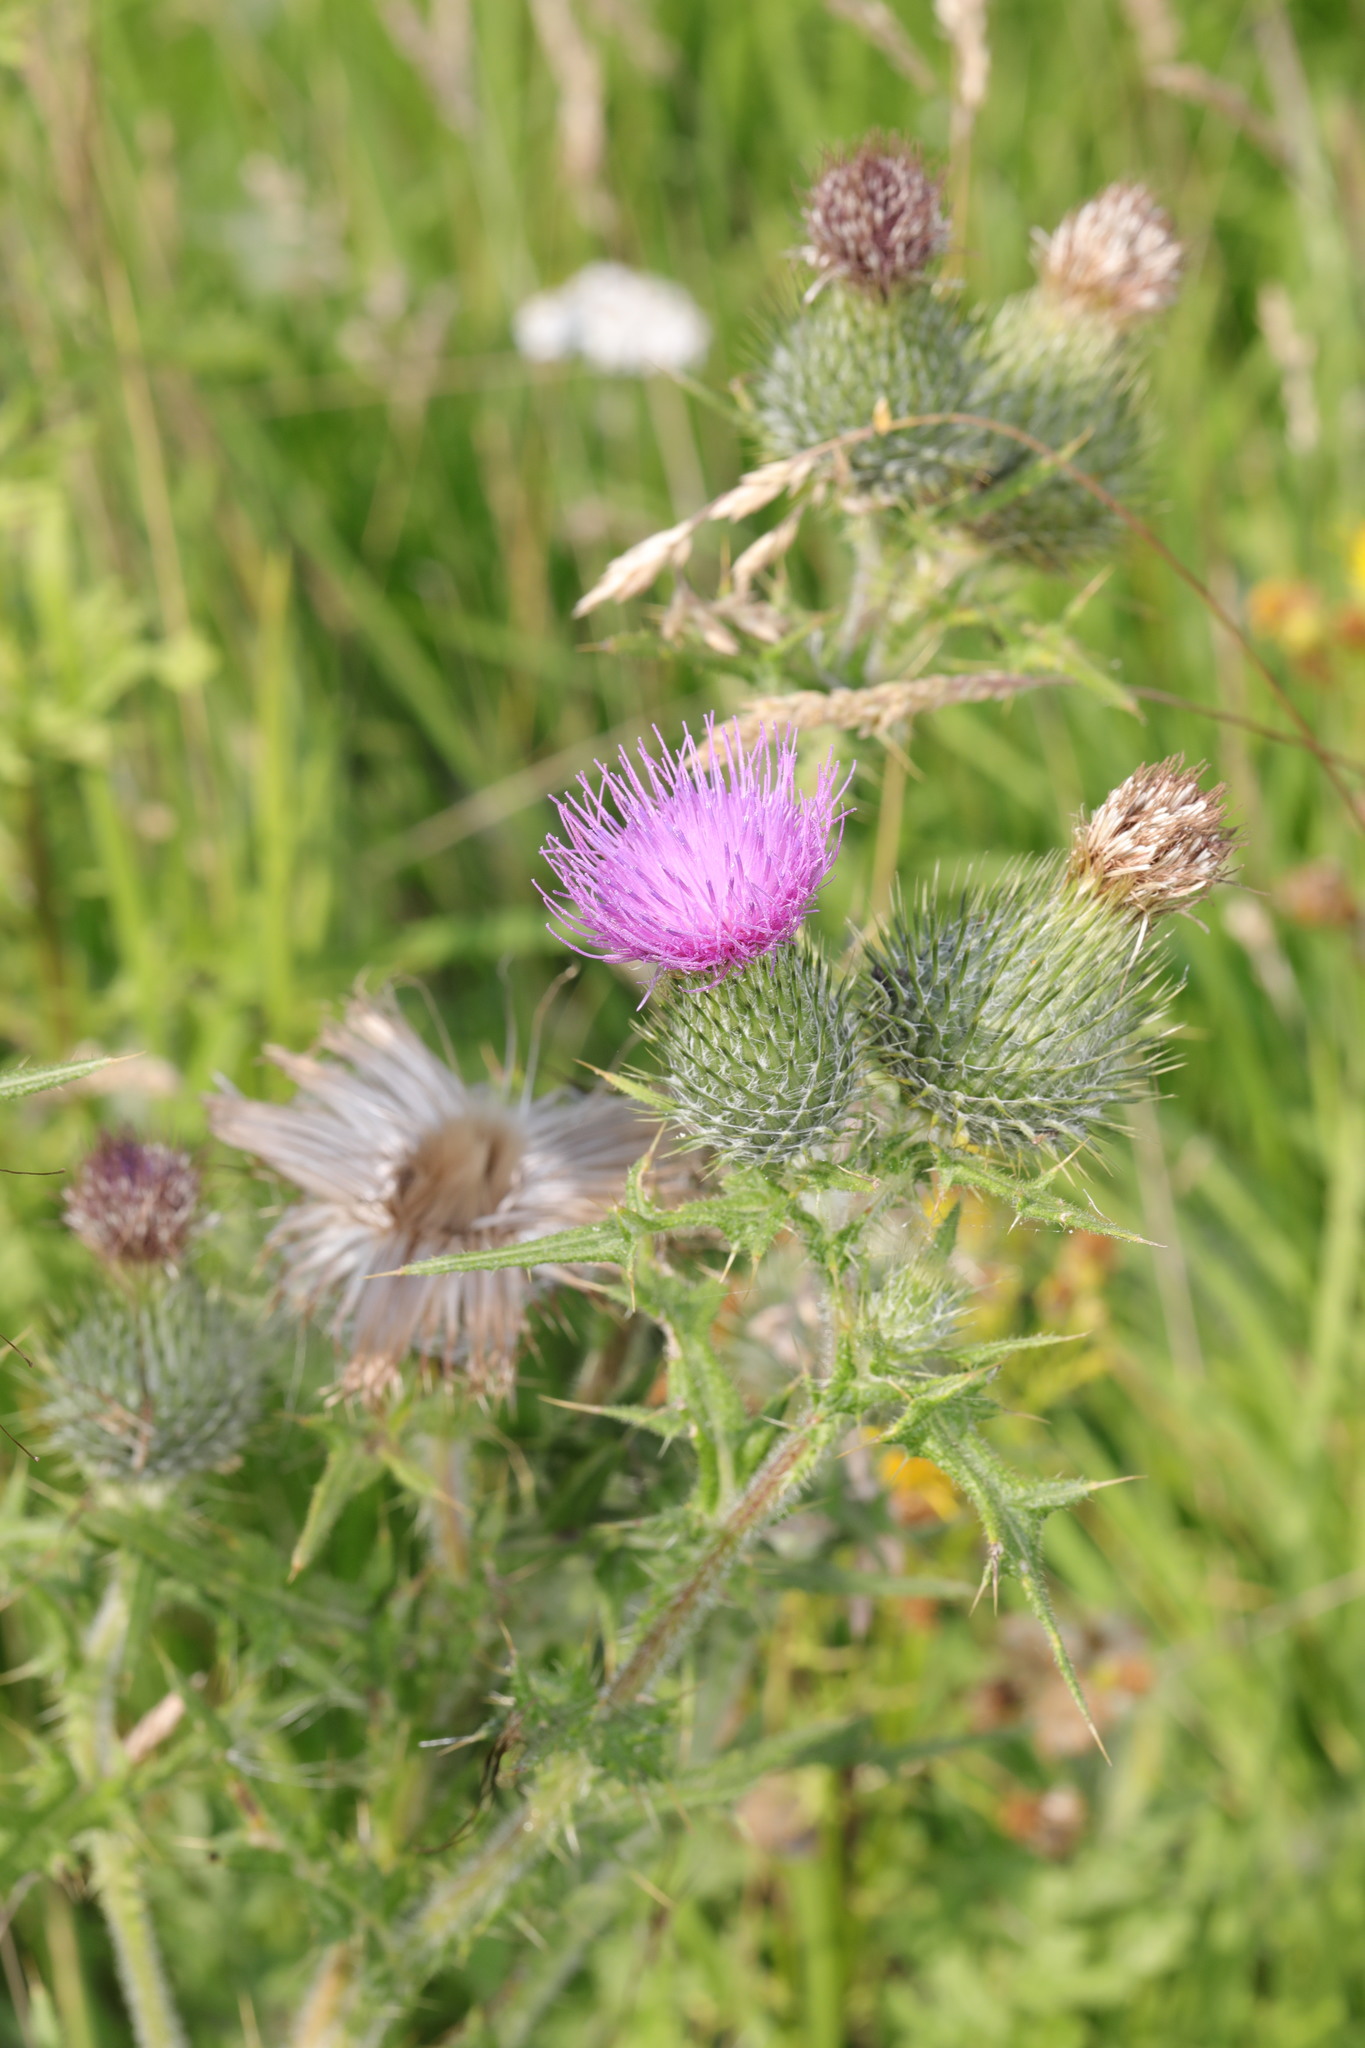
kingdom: Plantae
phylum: Tracheophyta
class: Magnoliopsida
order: Asterales
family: Asteraceae
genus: Cirsium
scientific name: Cirsium vulgare
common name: Bull thistle
